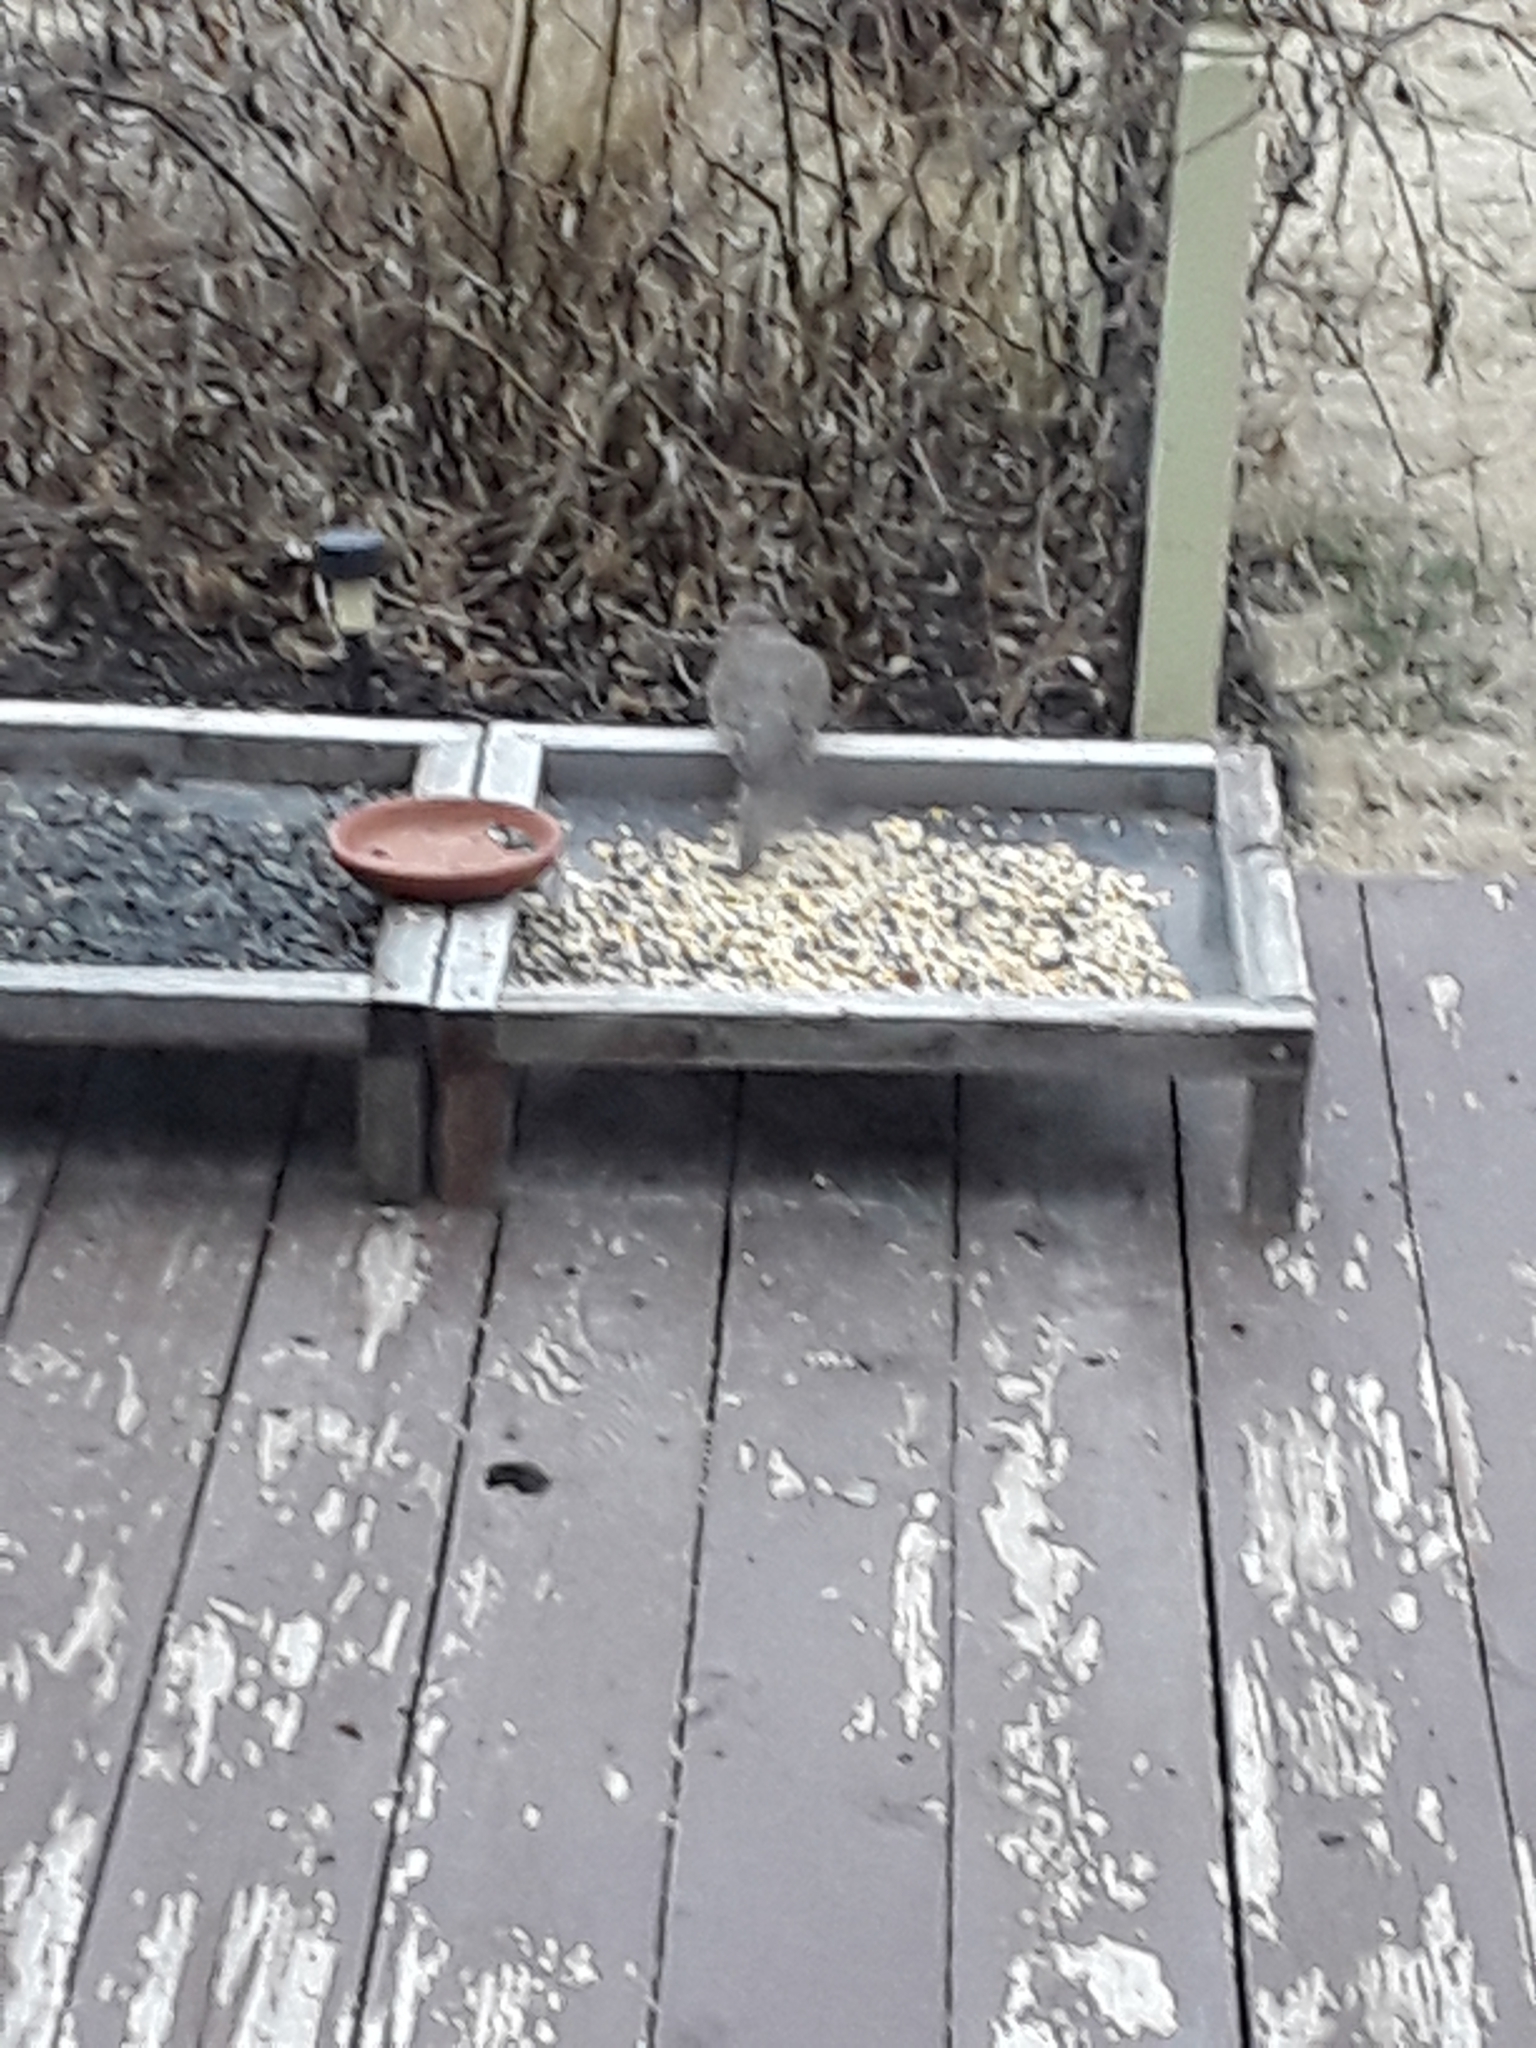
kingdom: Animalia
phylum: Chordata
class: Aves
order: Columbiformes
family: Columbidae
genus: Zenaida
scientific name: Zenaida macroura
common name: Mourning dove
